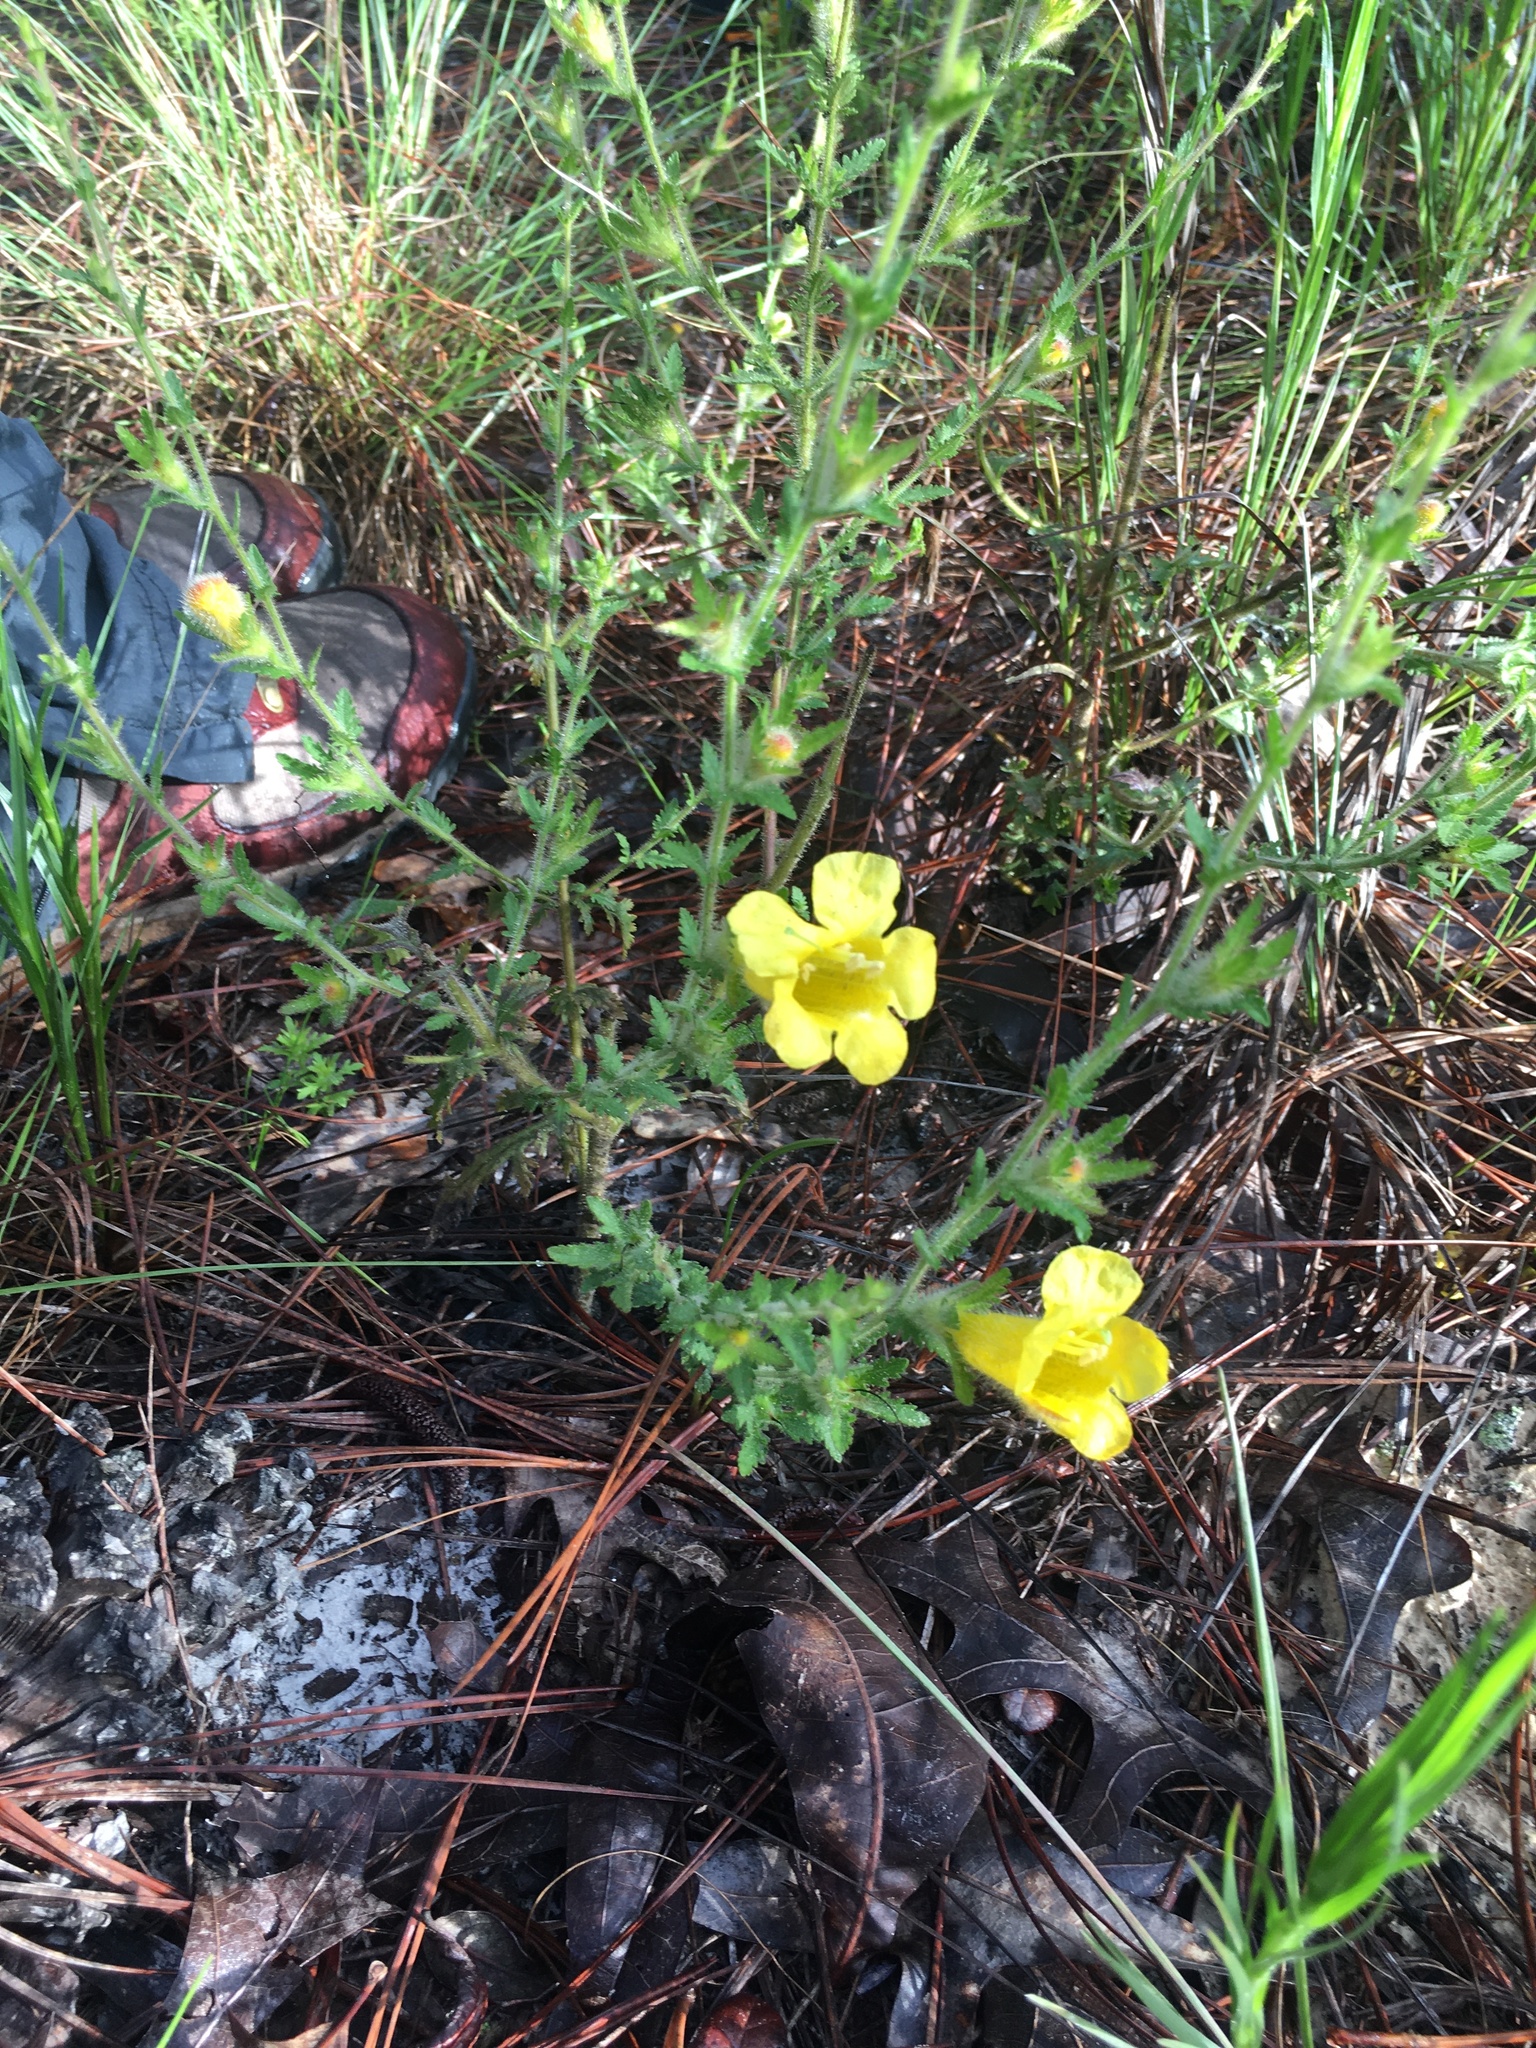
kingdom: Plantae
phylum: Tracheophyta
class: Magnoliopsida
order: Lamiales
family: Orobanchaceae
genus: Aureolaria
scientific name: Aureolaria pectinata
